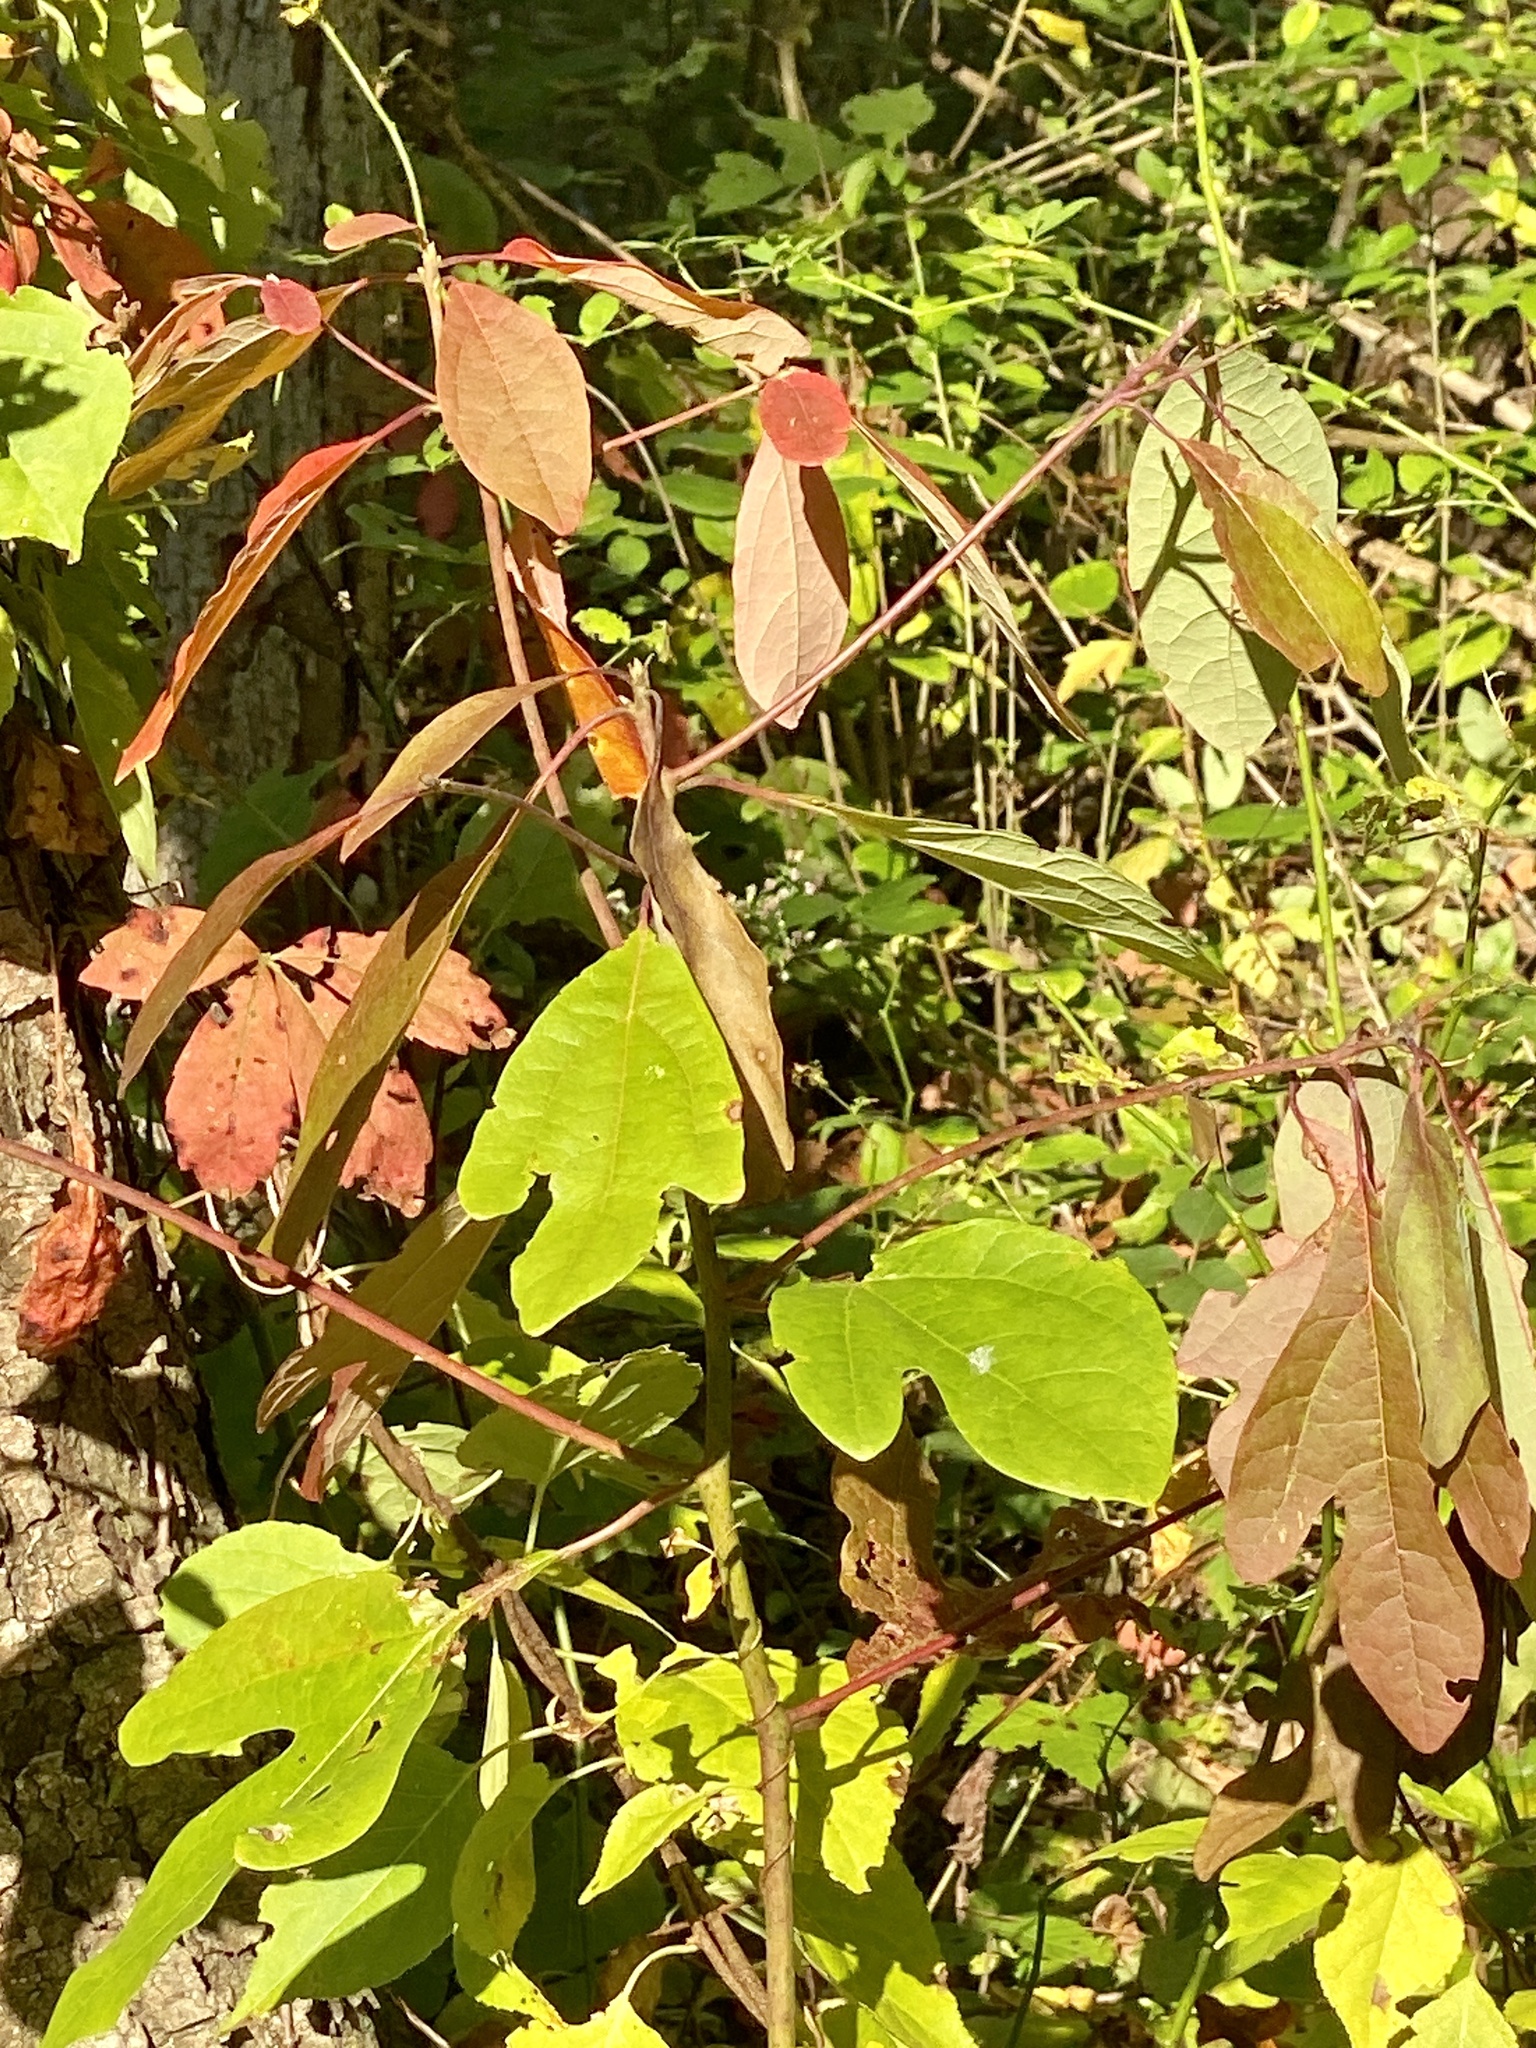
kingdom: Plantae
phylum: Tracheophyta
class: Magnoliopsida
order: Laurales
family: Lauraceae
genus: Sassafras
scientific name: Sassafras albidum
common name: Sassafras
